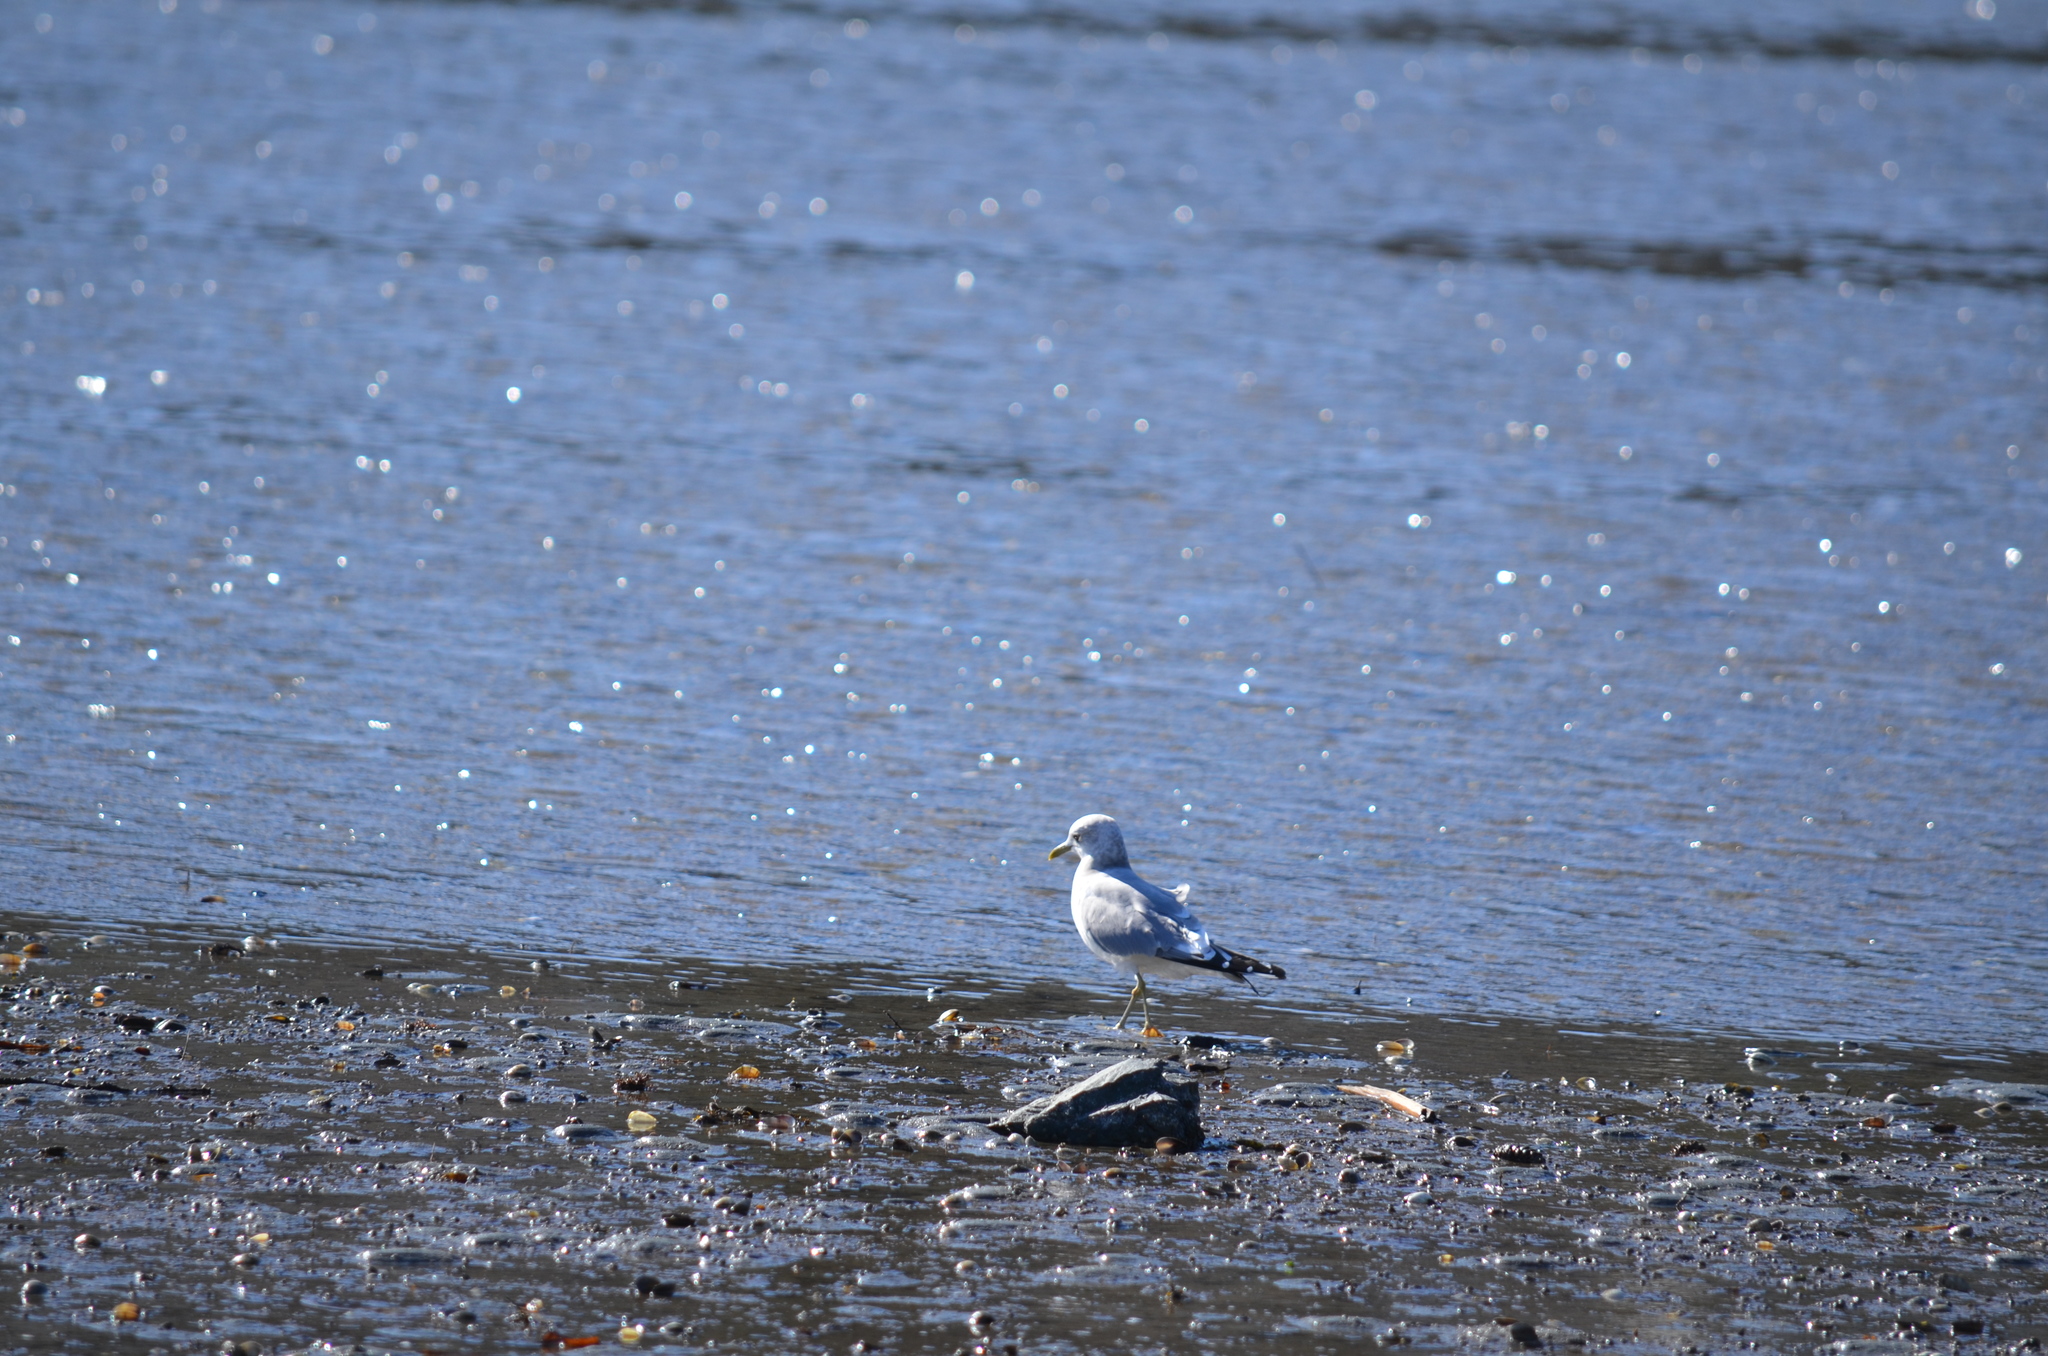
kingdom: Animalia
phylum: Chordata
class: Aves
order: Charadriiformes
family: Laridae
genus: Larus
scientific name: Larus brachyrhynchus
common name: Short-billed gull
